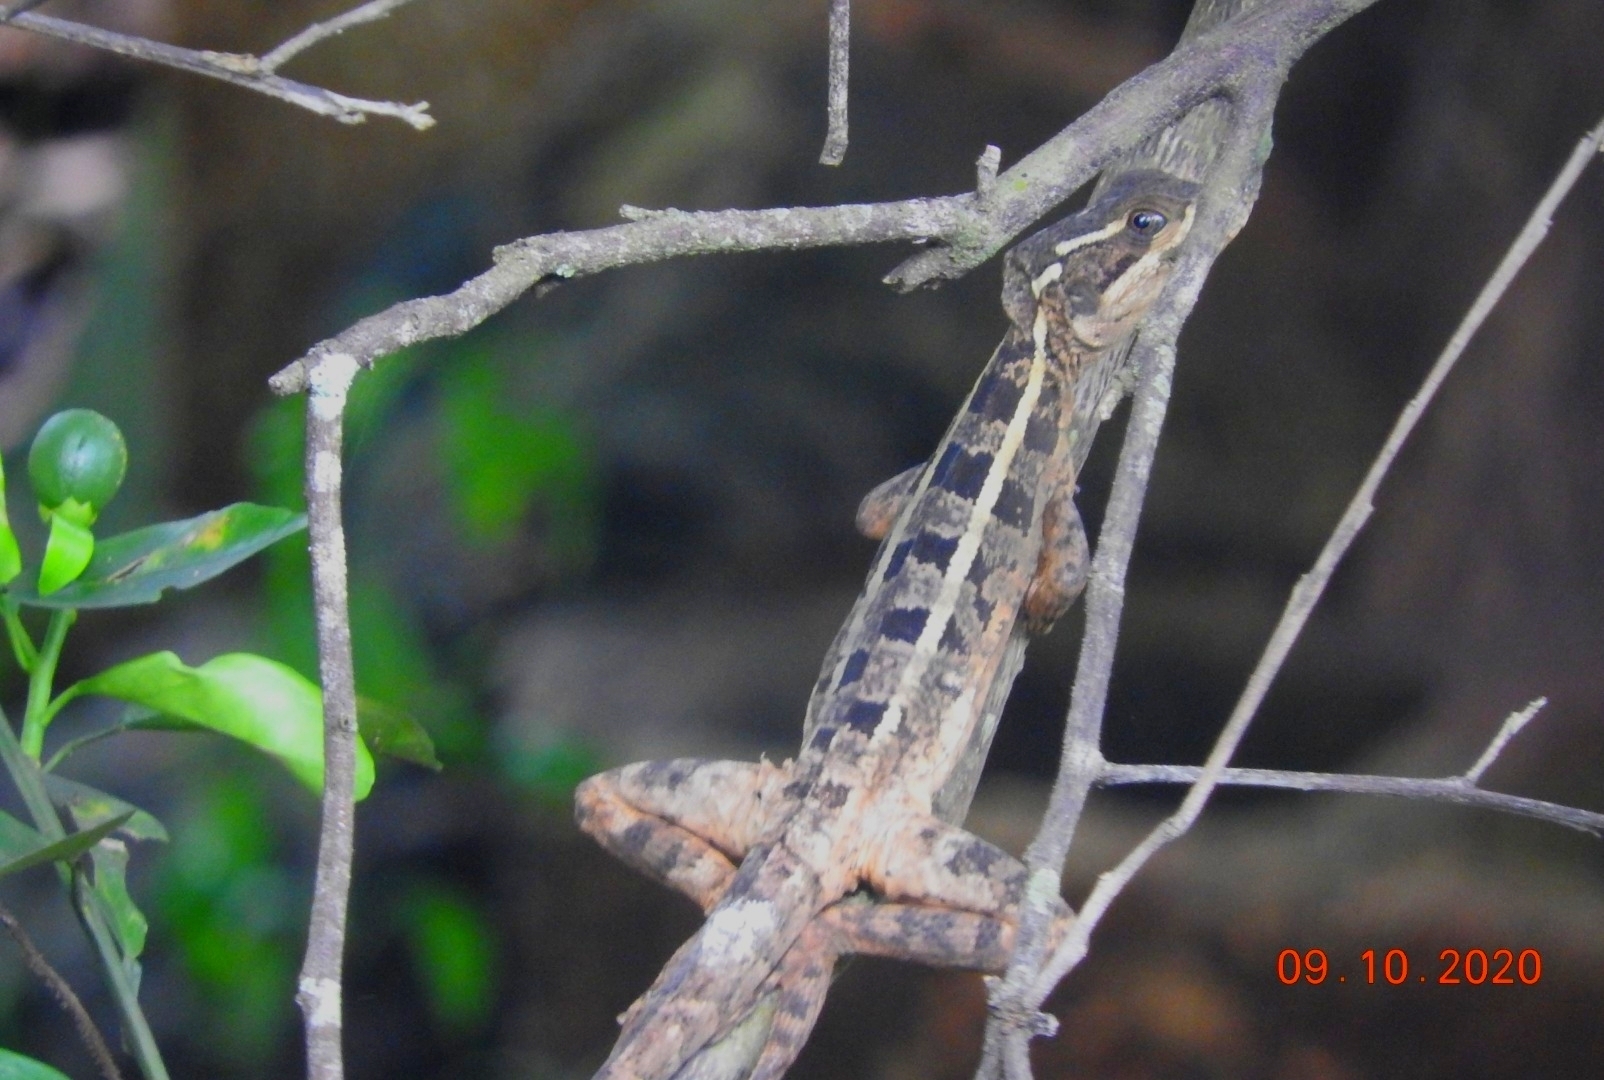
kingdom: Animalia
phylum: Chordata
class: Squamata
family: Corytophanidae
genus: Basiliscus
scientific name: Basiliscus vittatus
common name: Brown basilisk
